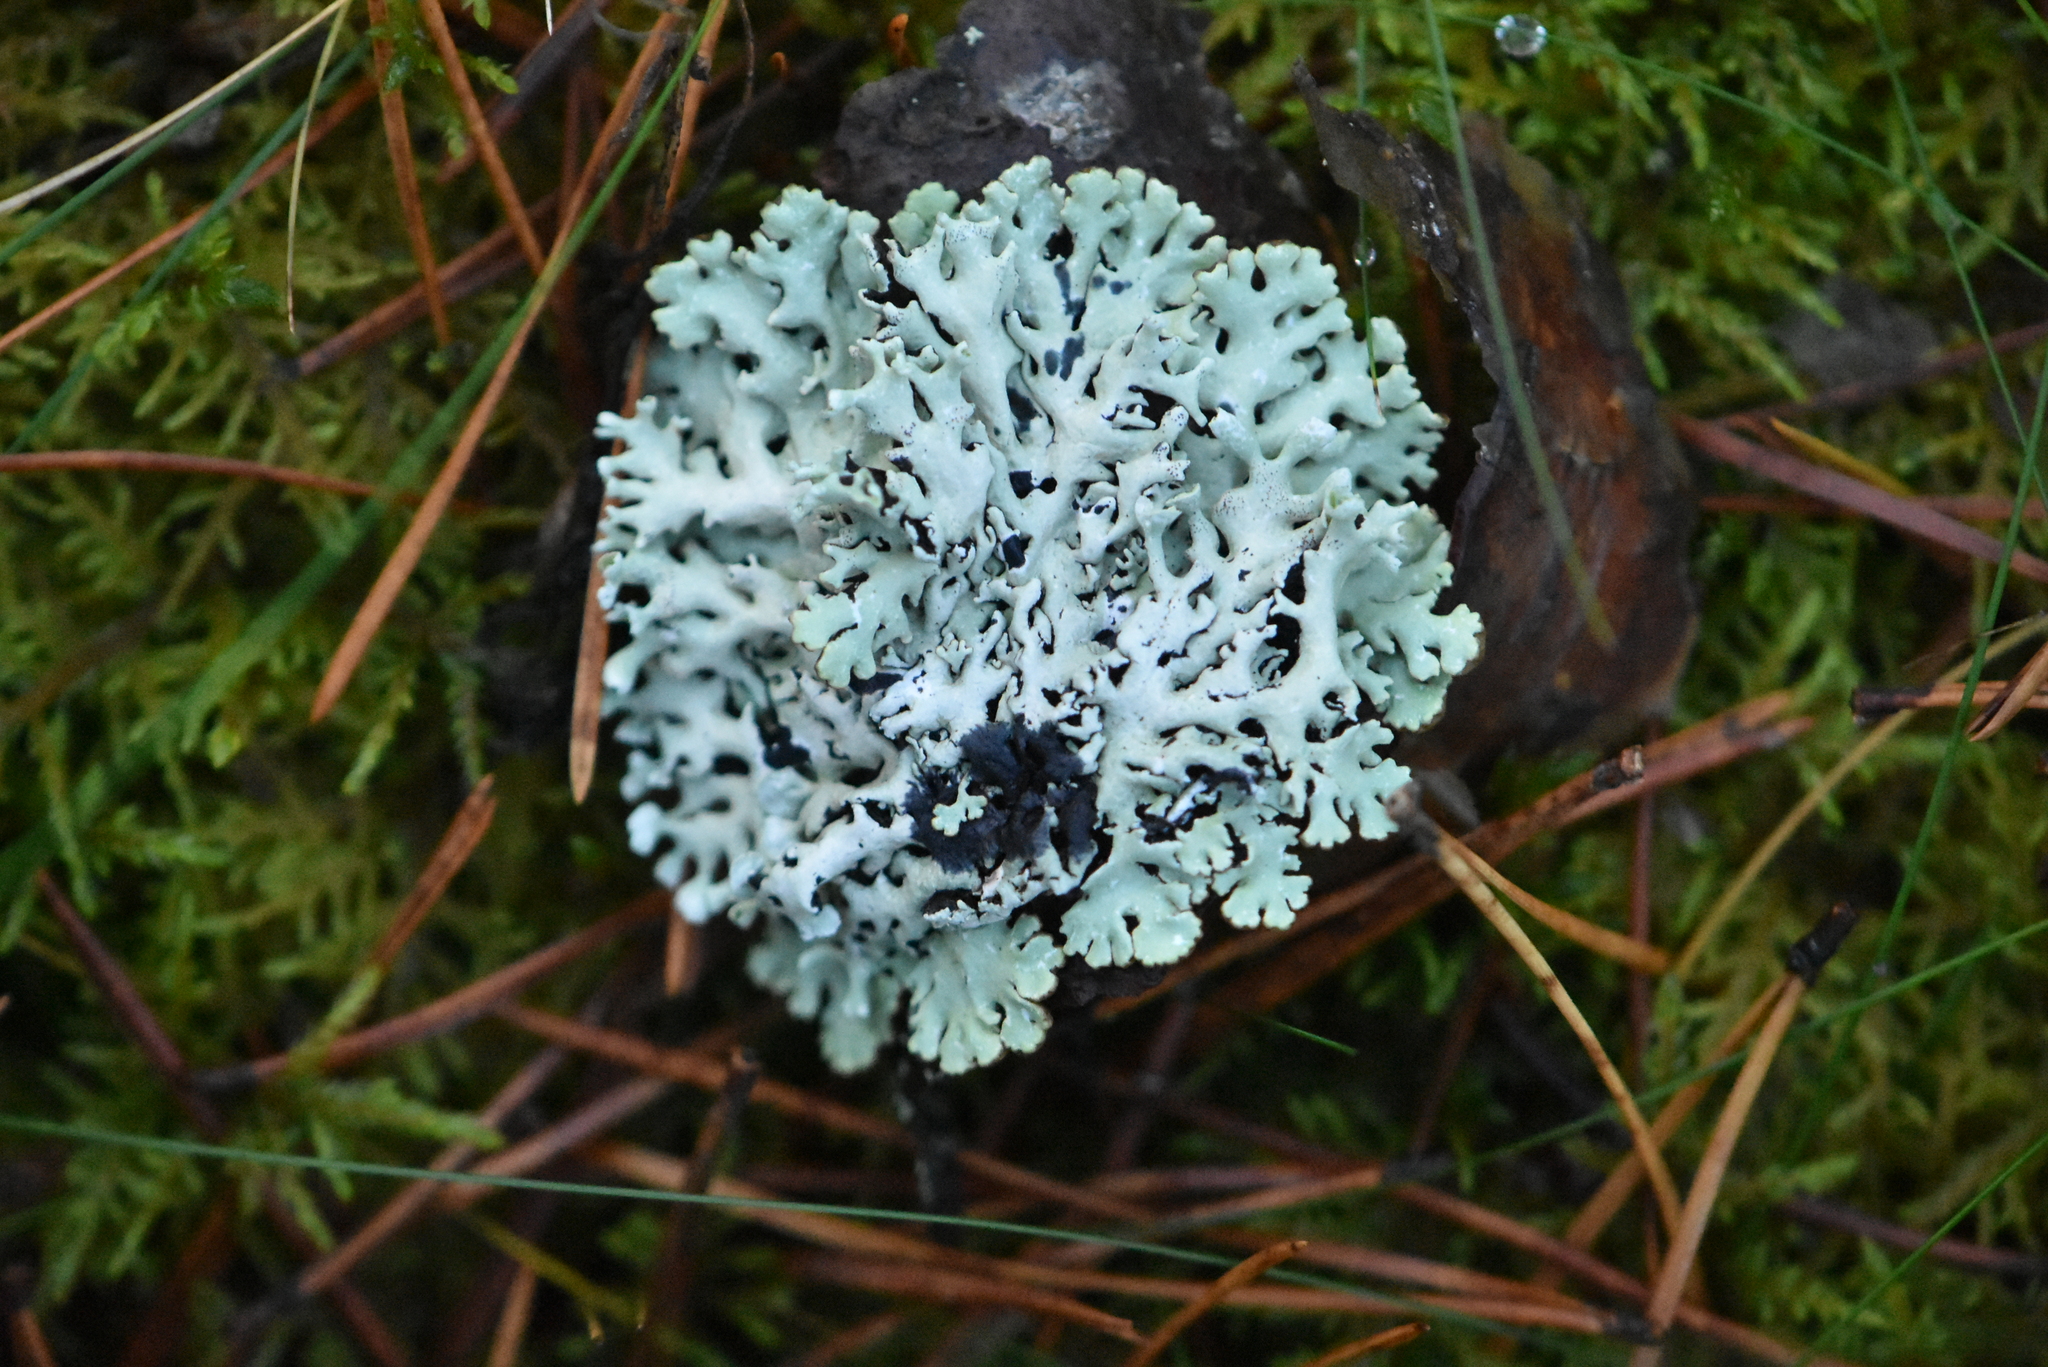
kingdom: Fungi
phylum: Ascomycota
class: Lecanoromycetes
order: Lecanorales
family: Parmeliaceae
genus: Hypogymnia
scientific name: Hypogymnia physodes
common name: Dark crottle
